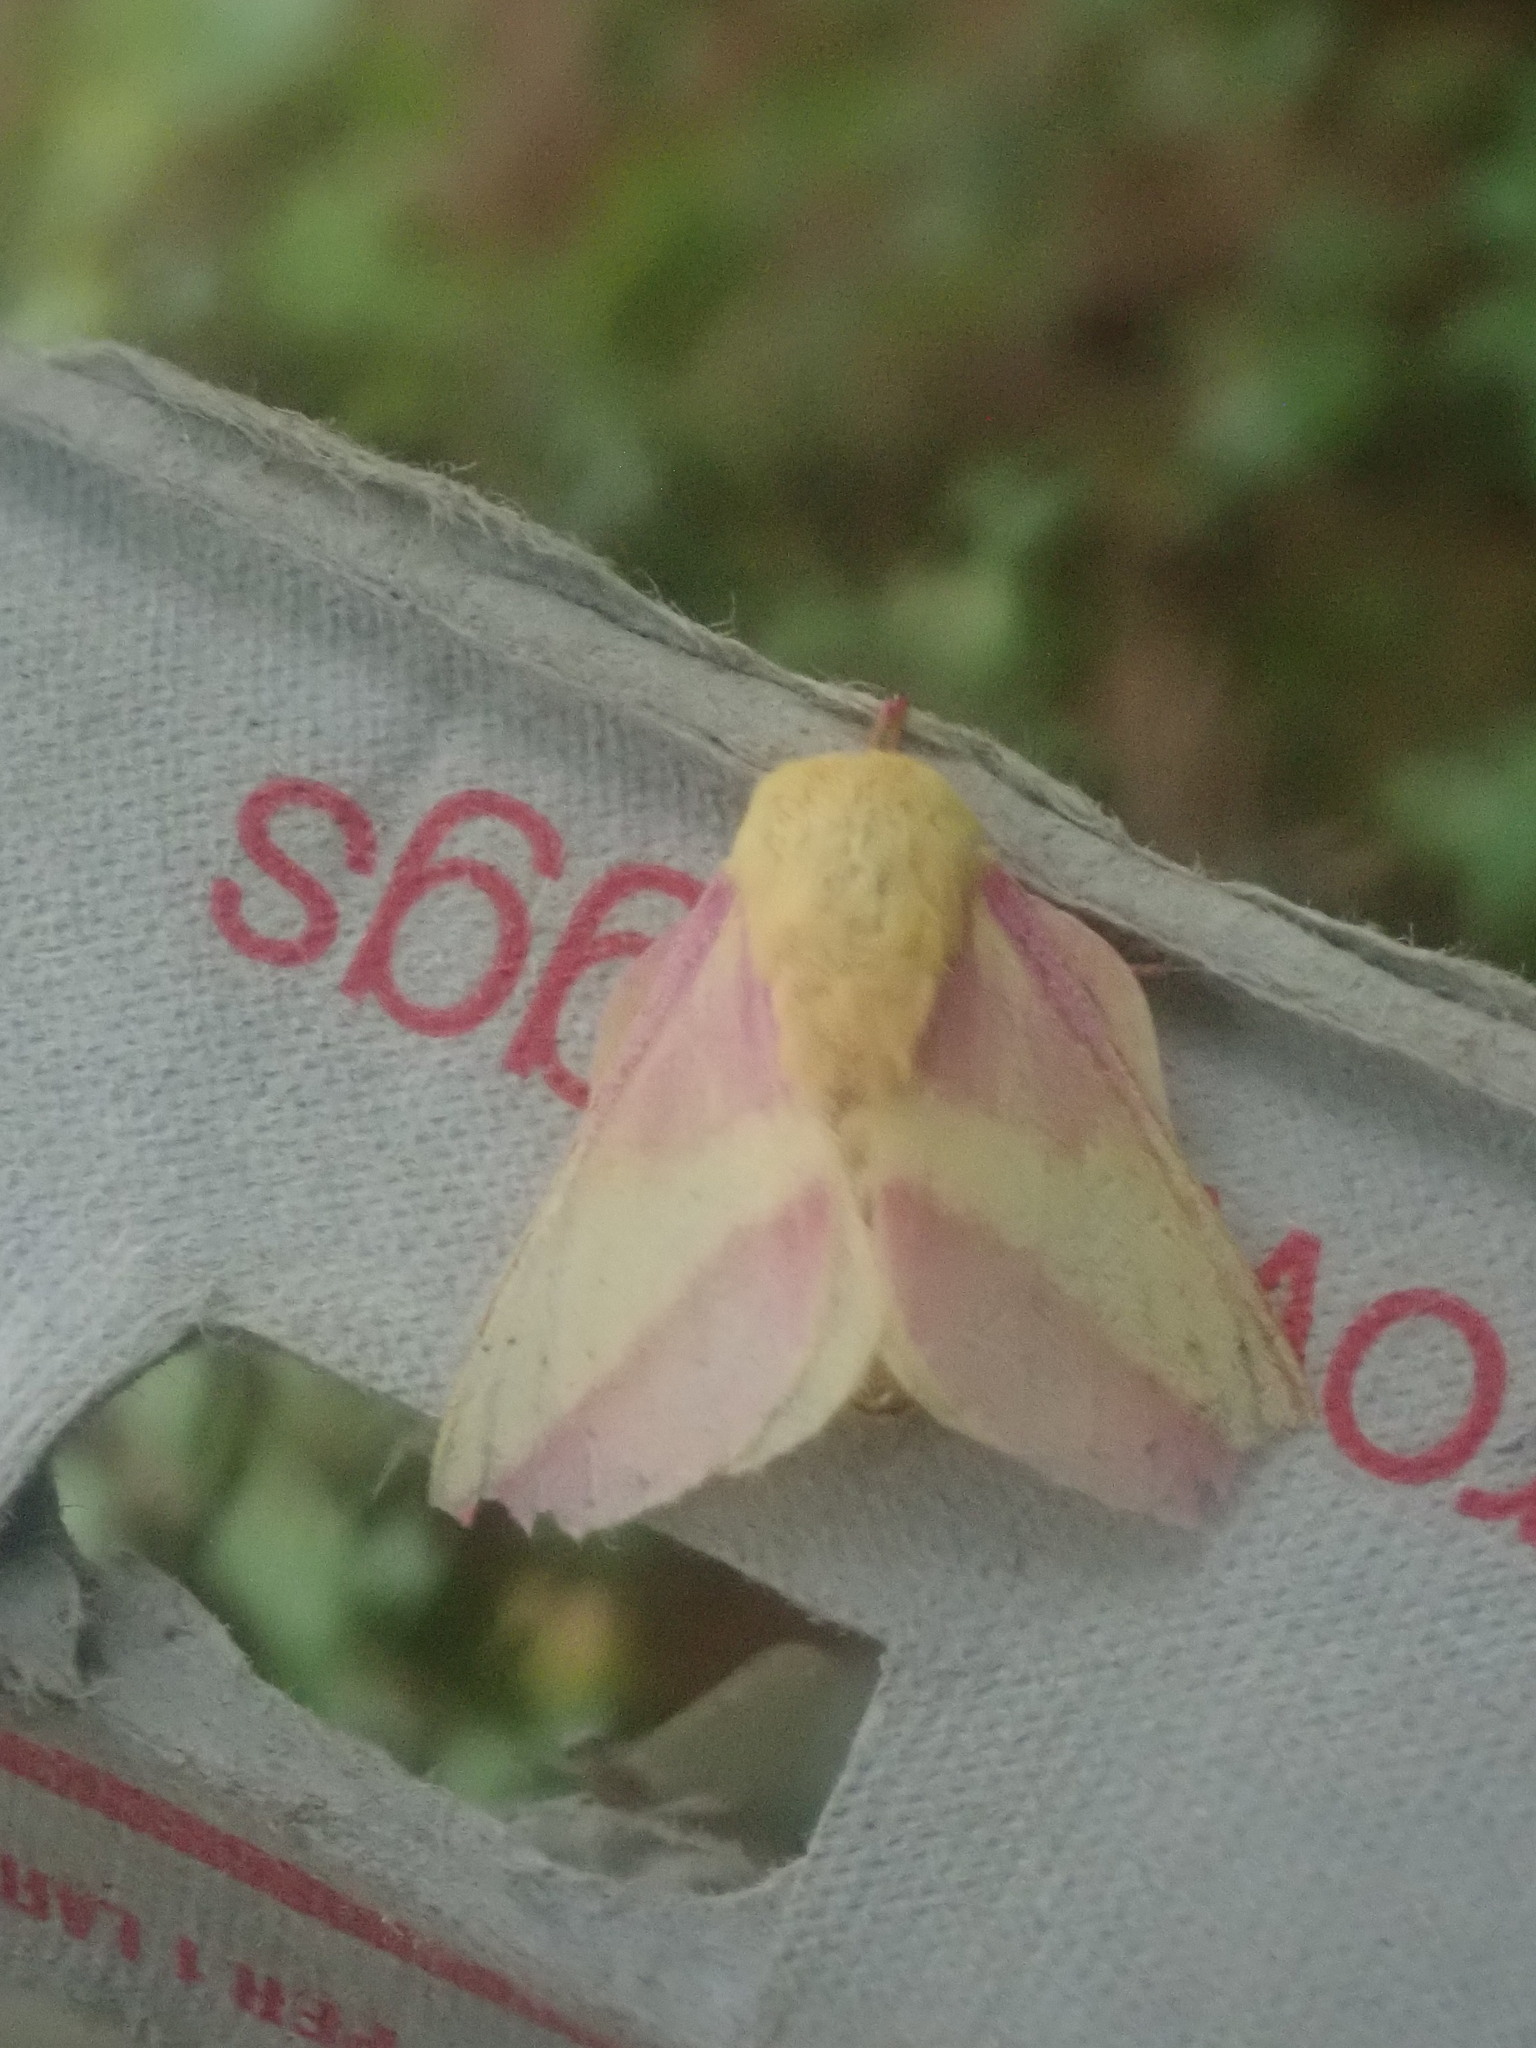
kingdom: Animalia
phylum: Arthropoda
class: Insecta
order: Lepidoptera
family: Saturniidae
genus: Dryocampa
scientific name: Dryocampa rubicunda
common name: Rosy maple moth
